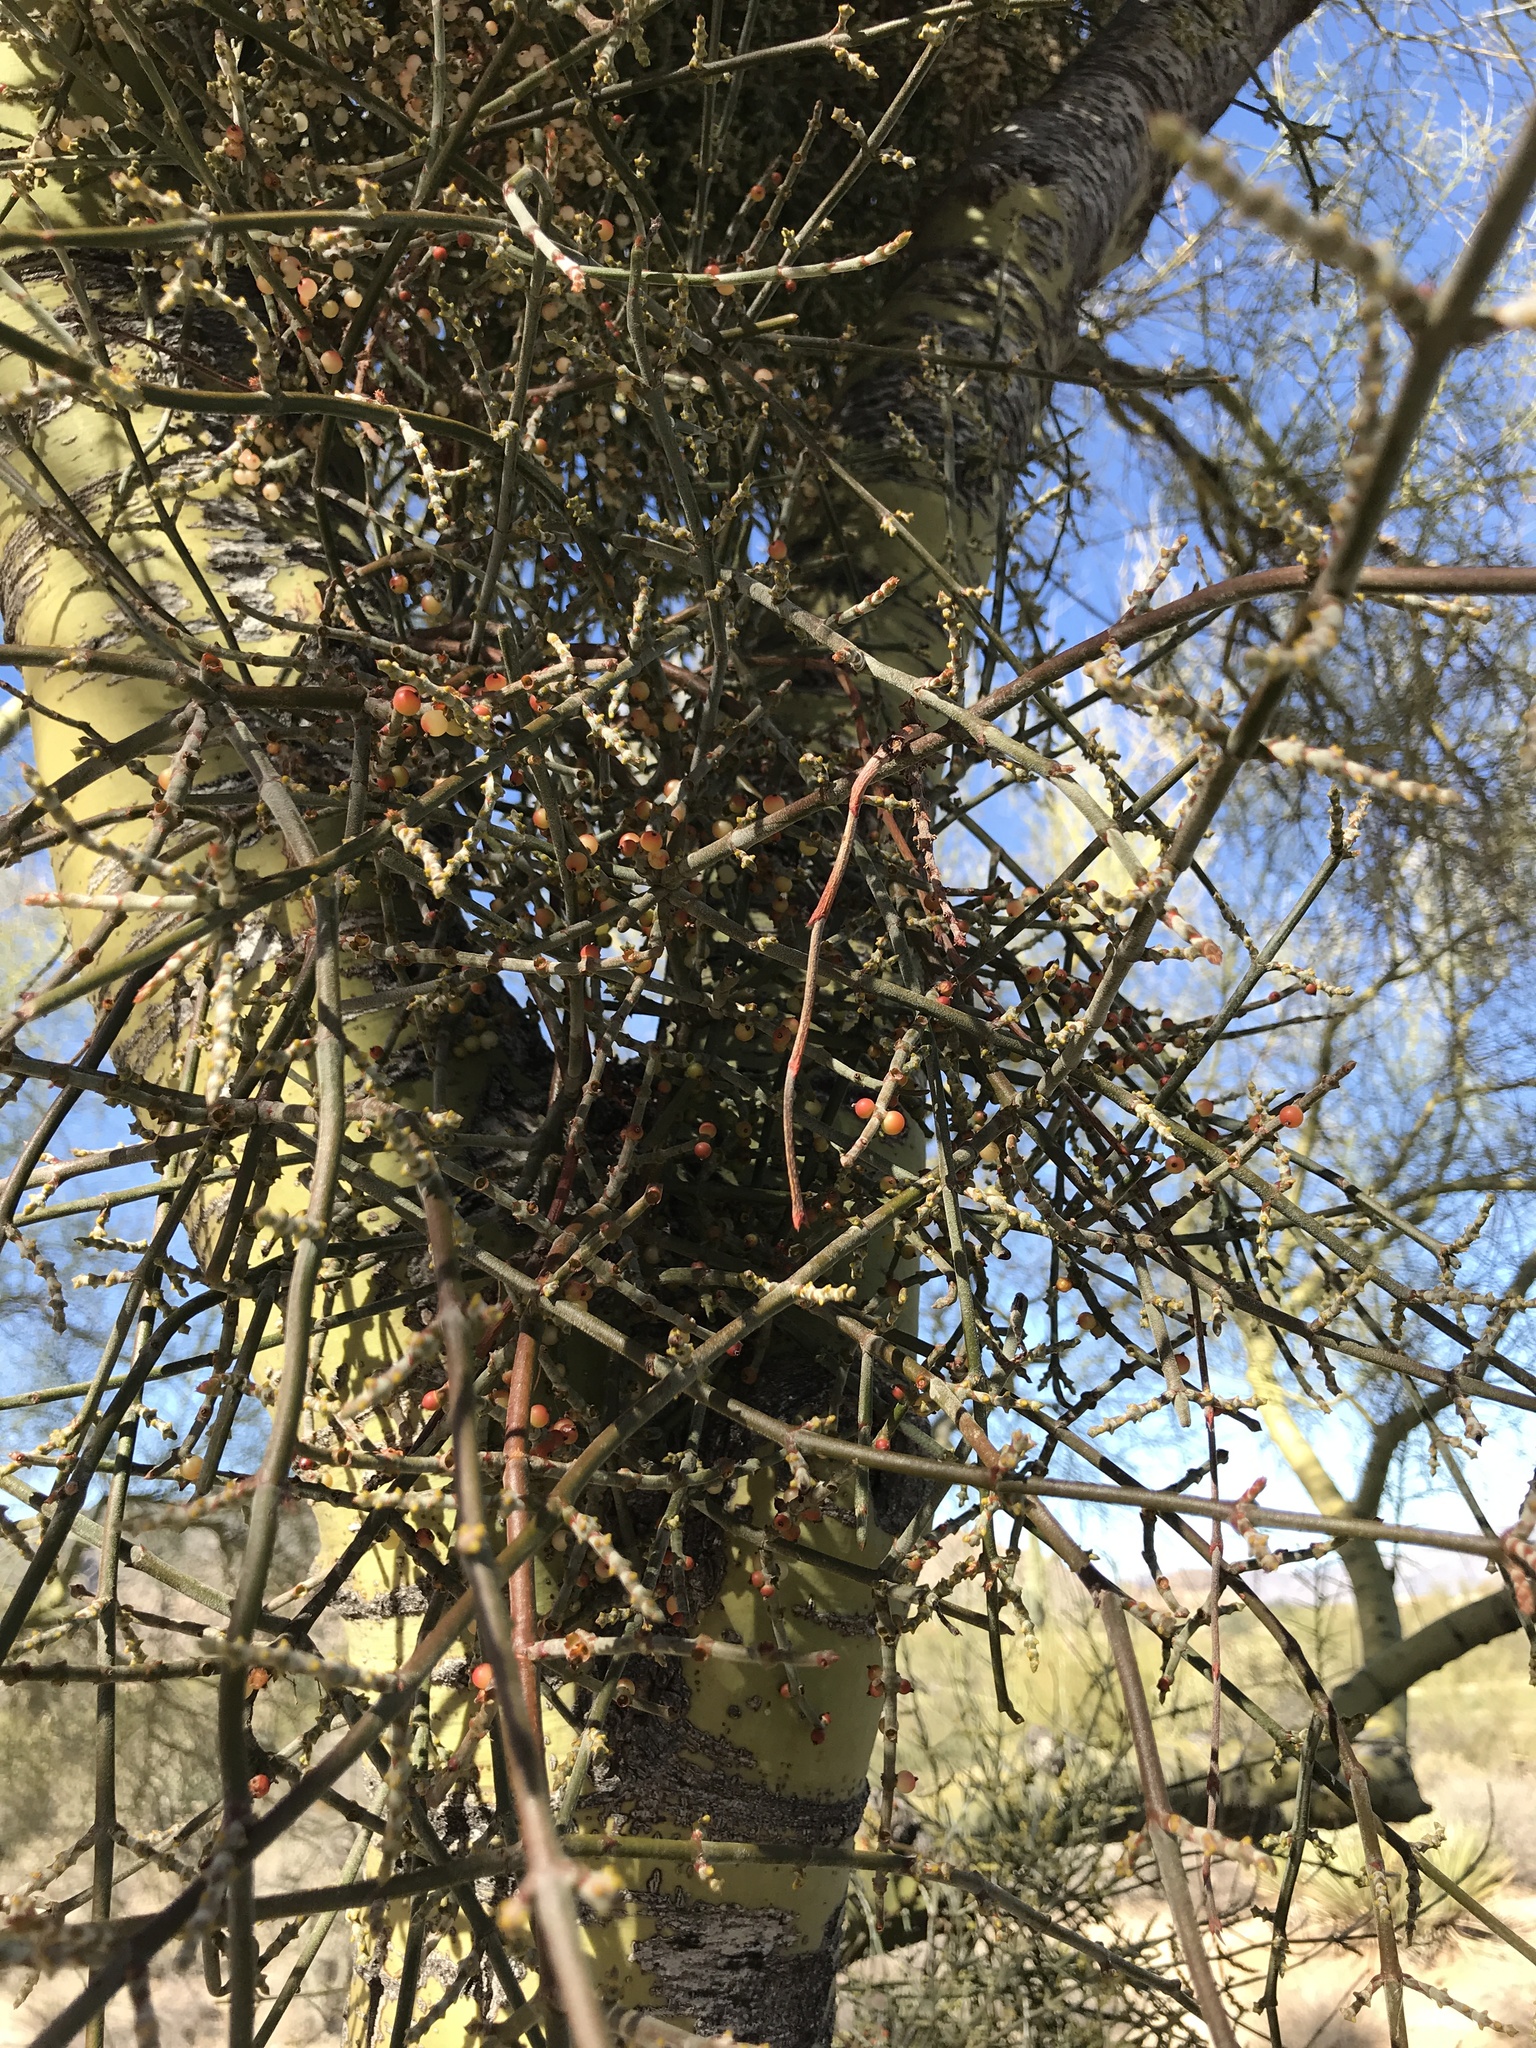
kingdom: Plantae
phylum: Tracheophyta
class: Magnoliopsida
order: Santalales
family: Viscaceae
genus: Phoradendron
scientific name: Phoradendron californicum
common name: Acacia mistletoe
